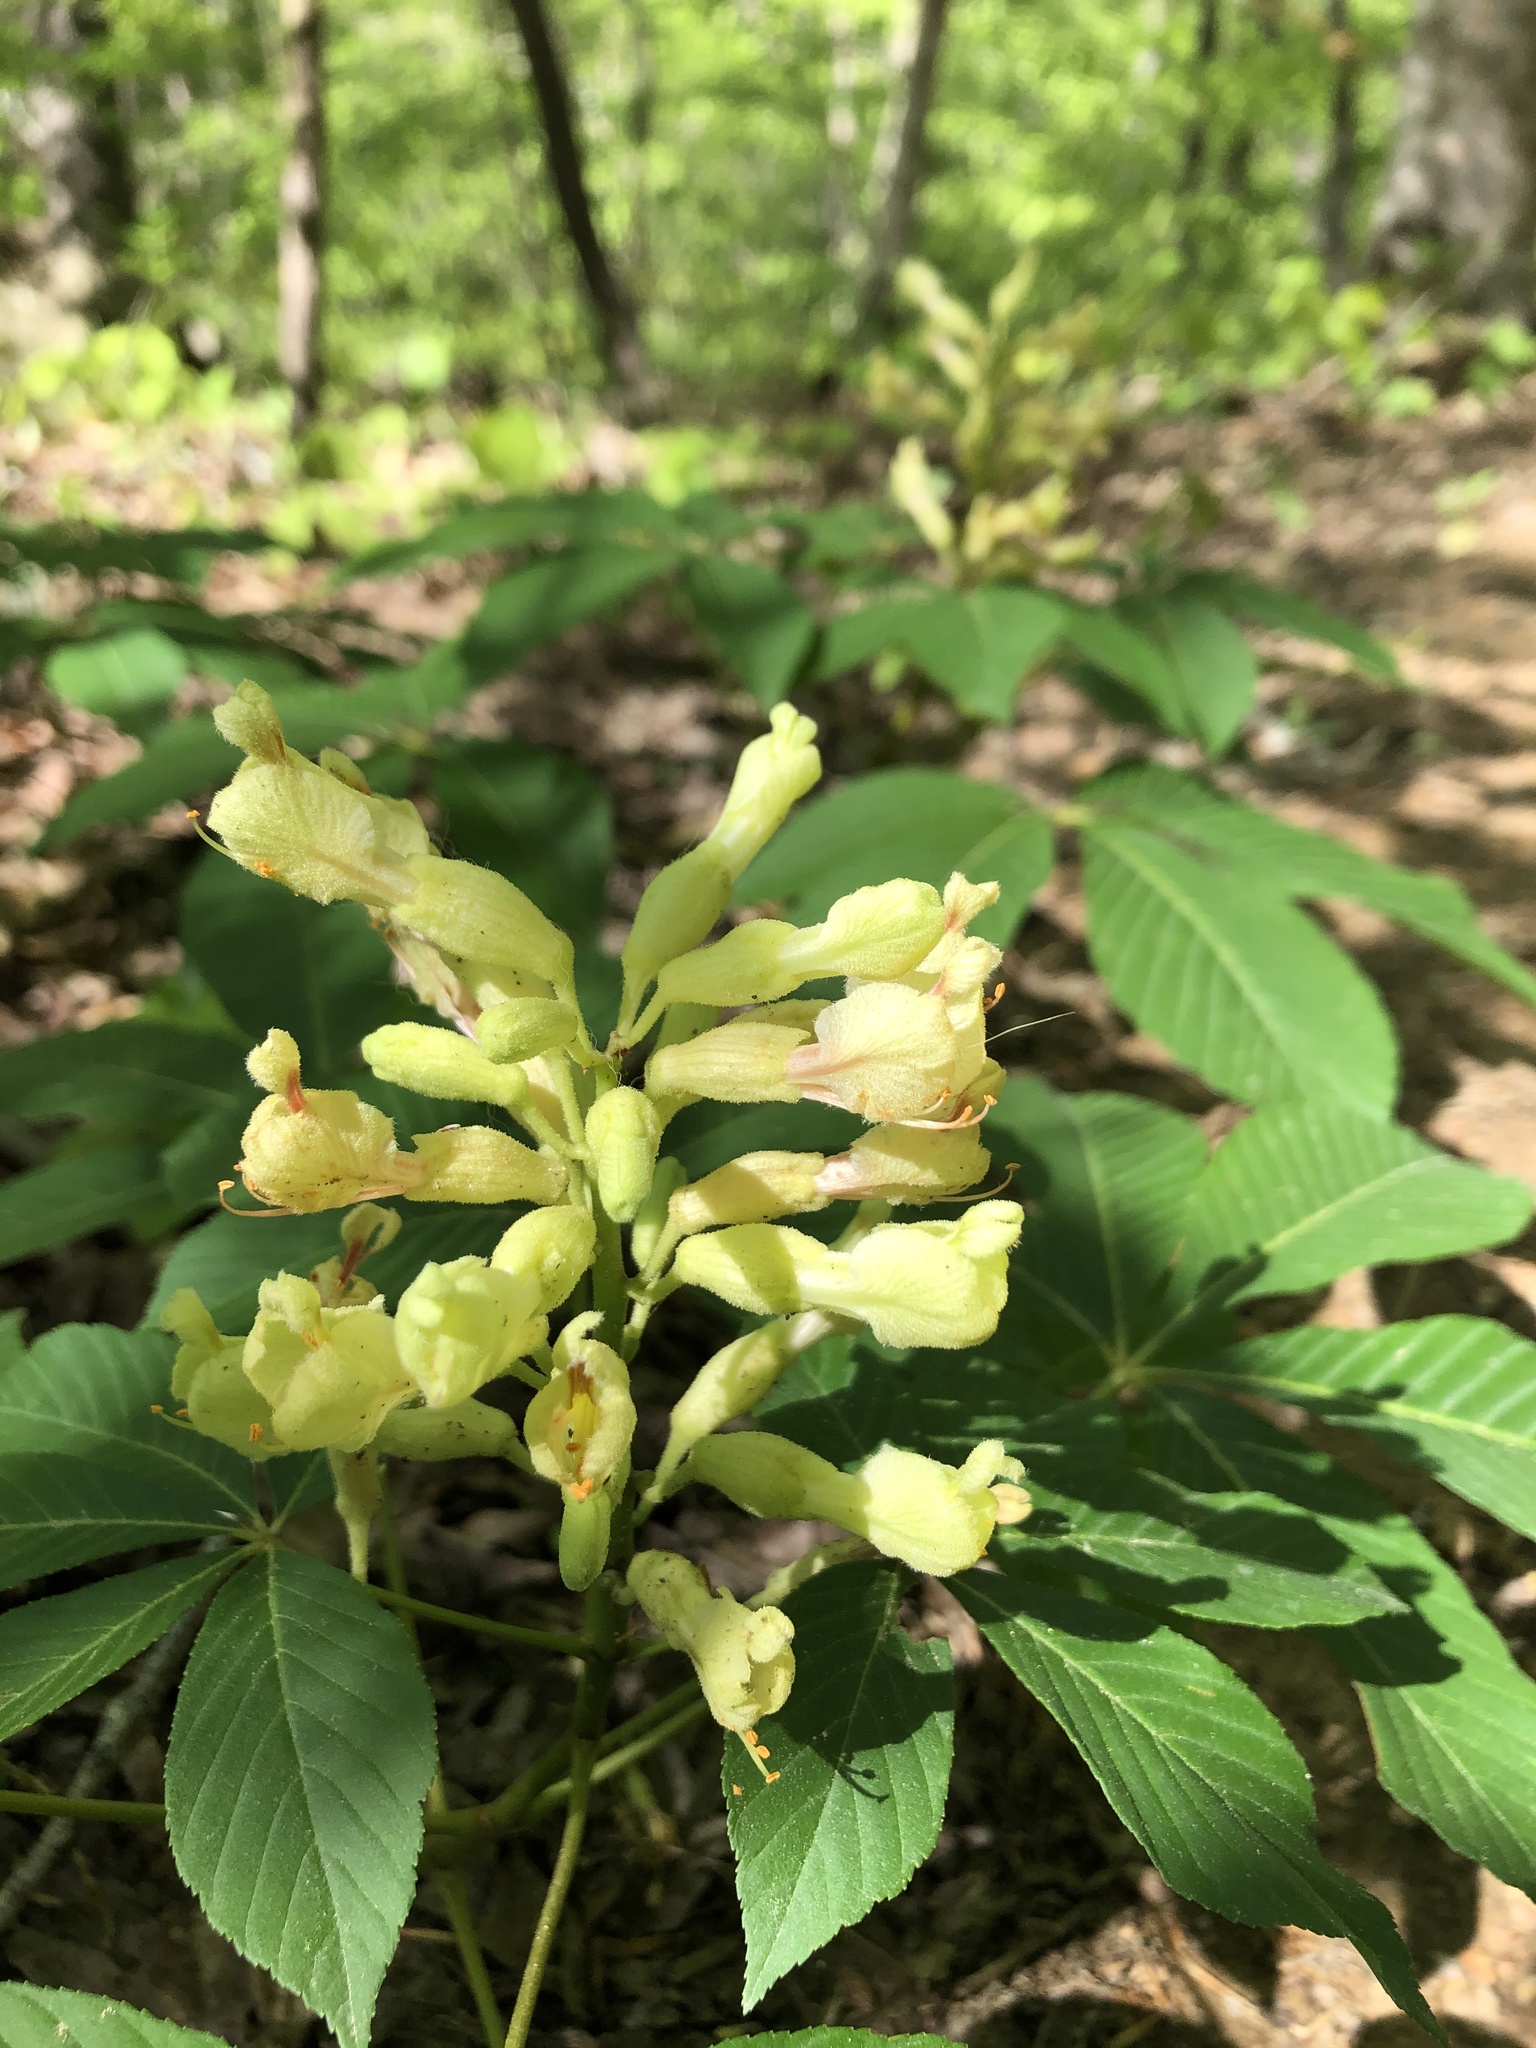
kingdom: Plantae
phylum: Tracheophyta
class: Magnoliopsida
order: Sapindales
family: Sapindaceae
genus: Aesculus
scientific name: Aesculus sylvatica
